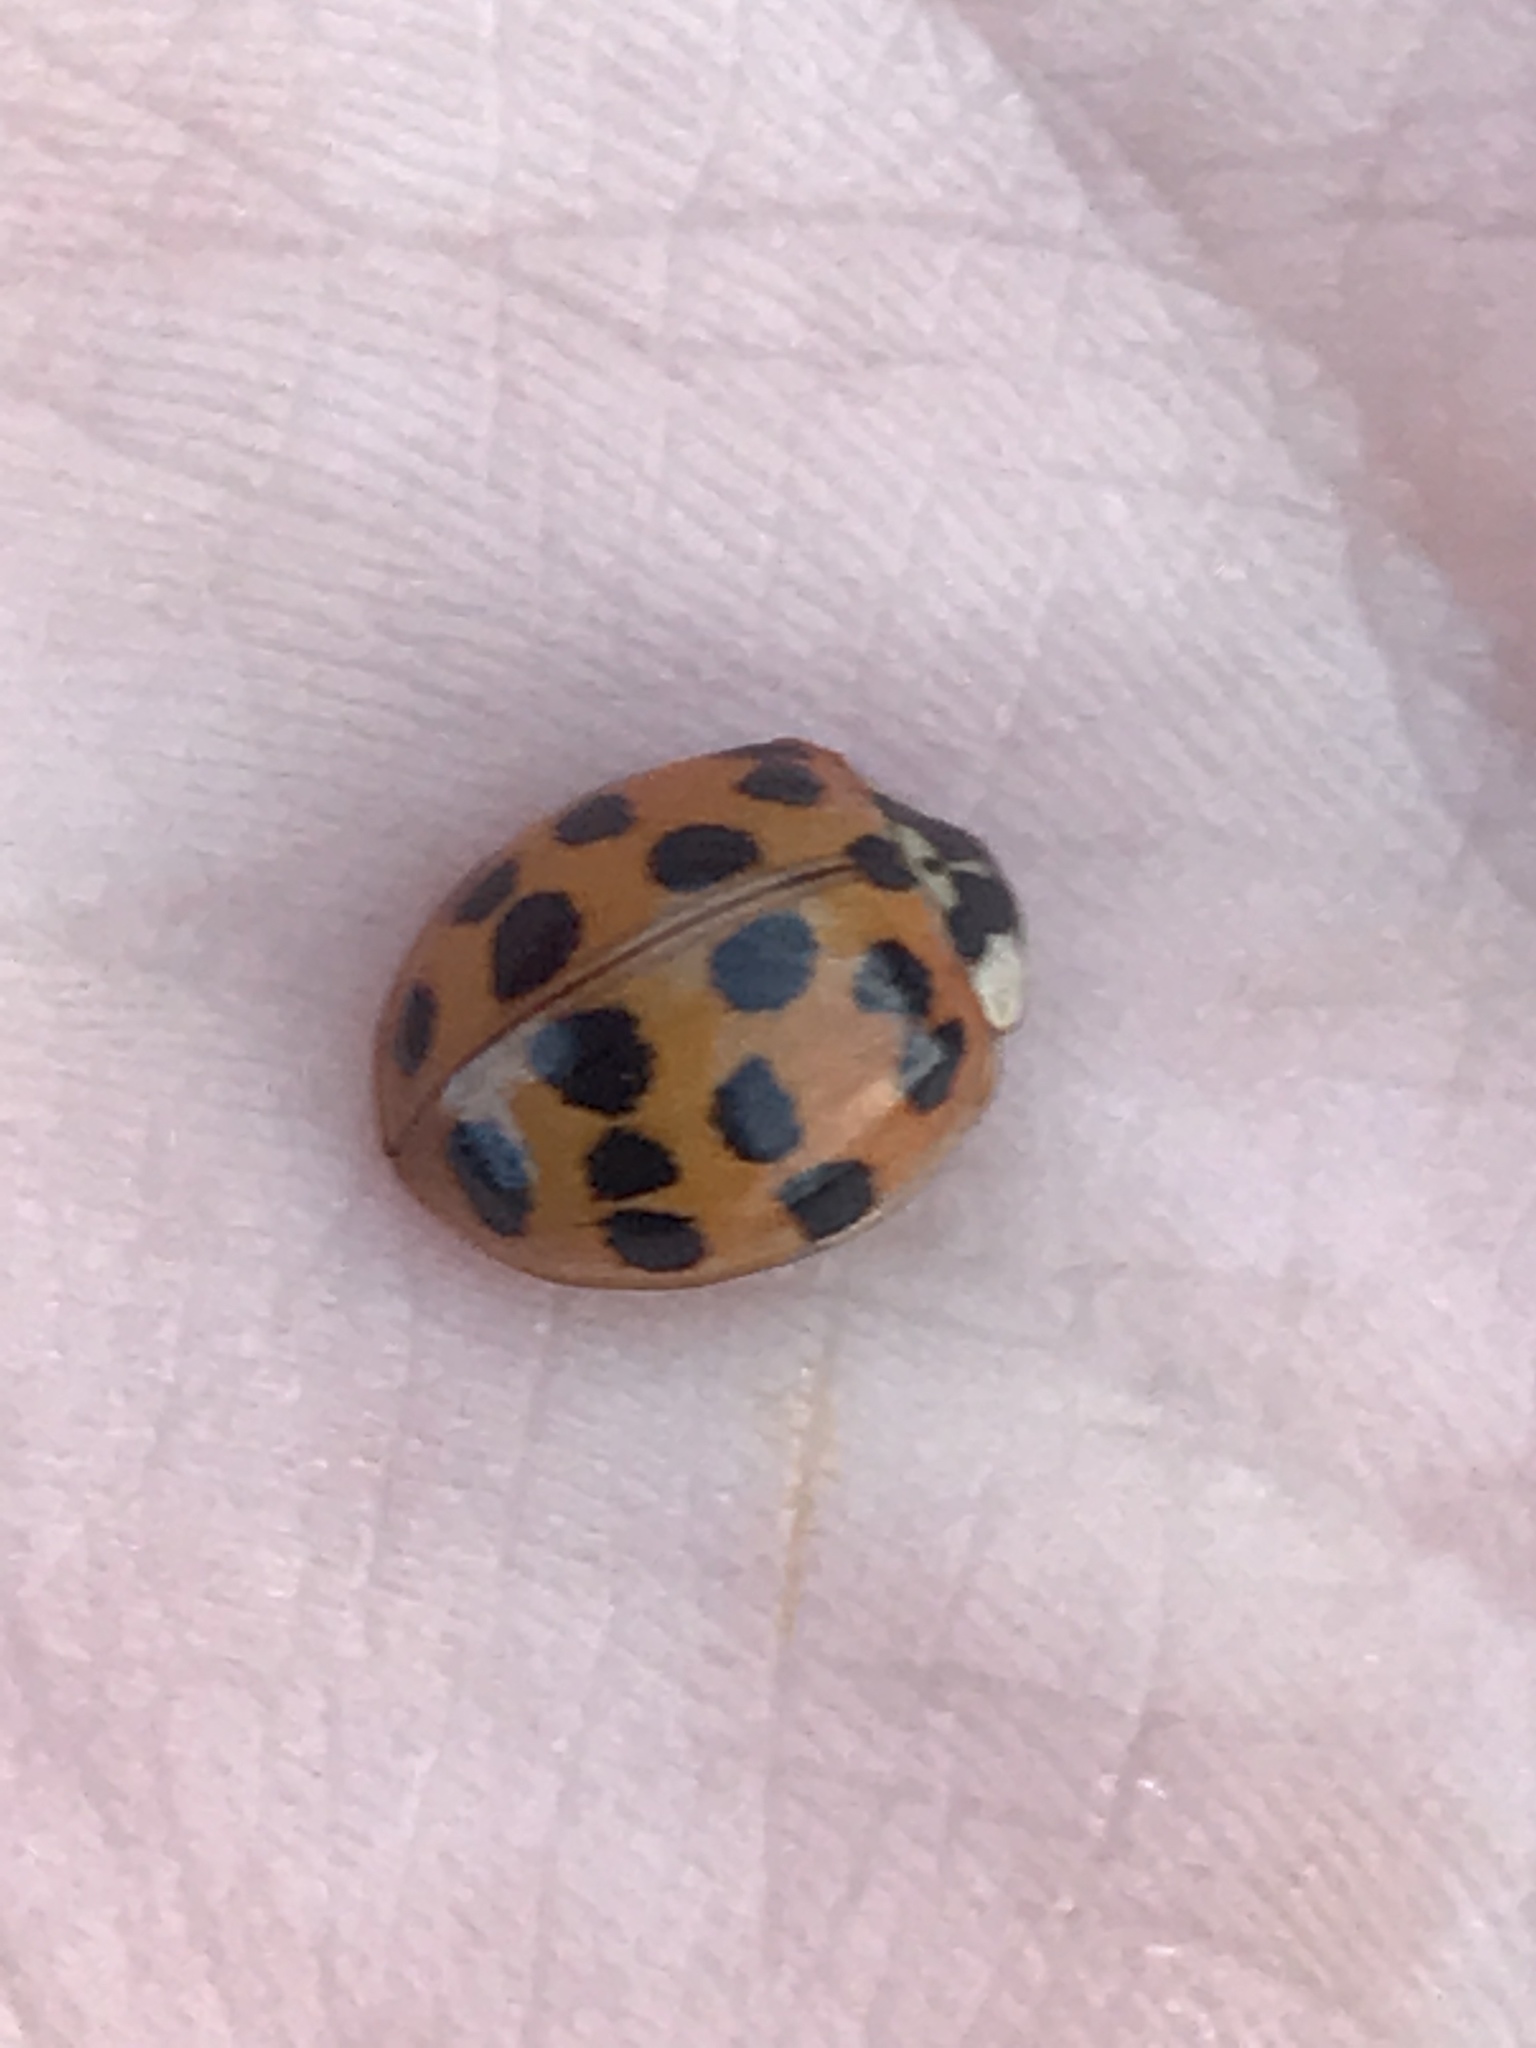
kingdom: Animalia
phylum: Arthropoda
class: Insecta
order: Coleoptera
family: Coccinellidae
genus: Harmonia
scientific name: Harmonia axyridis
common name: Harlequin ladybird
